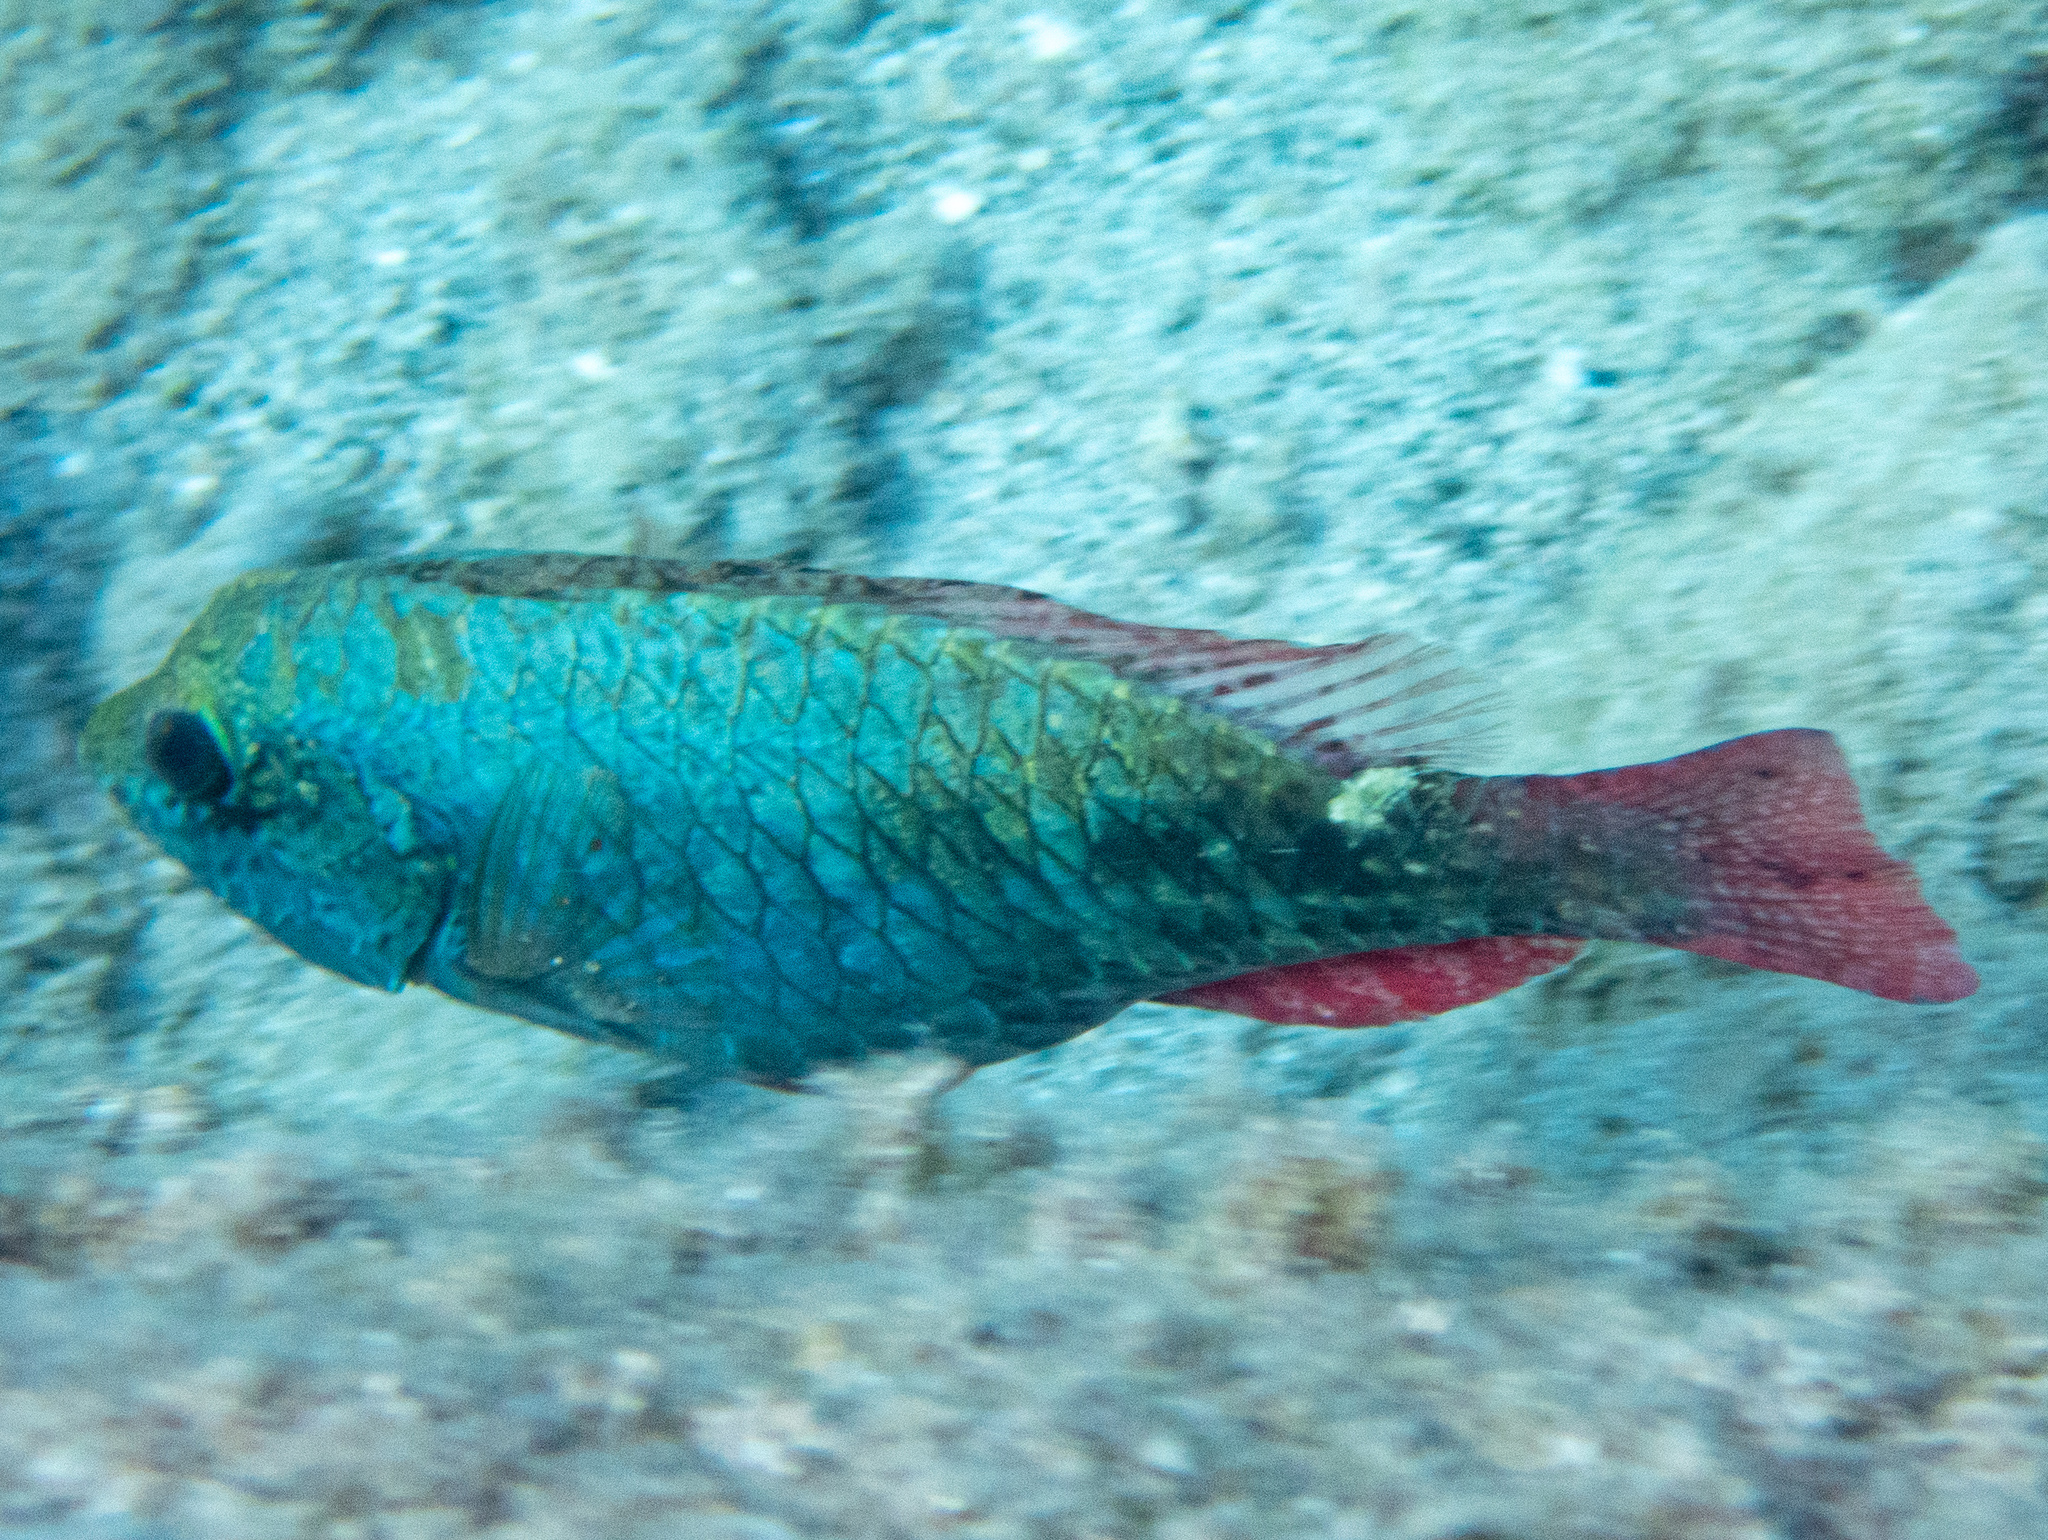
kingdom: Animalia
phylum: Chordata
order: Perciformes
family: Scaridae
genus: Sparisoma
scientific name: Sparisoma aurofrenatum
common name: Redband parrotfish
